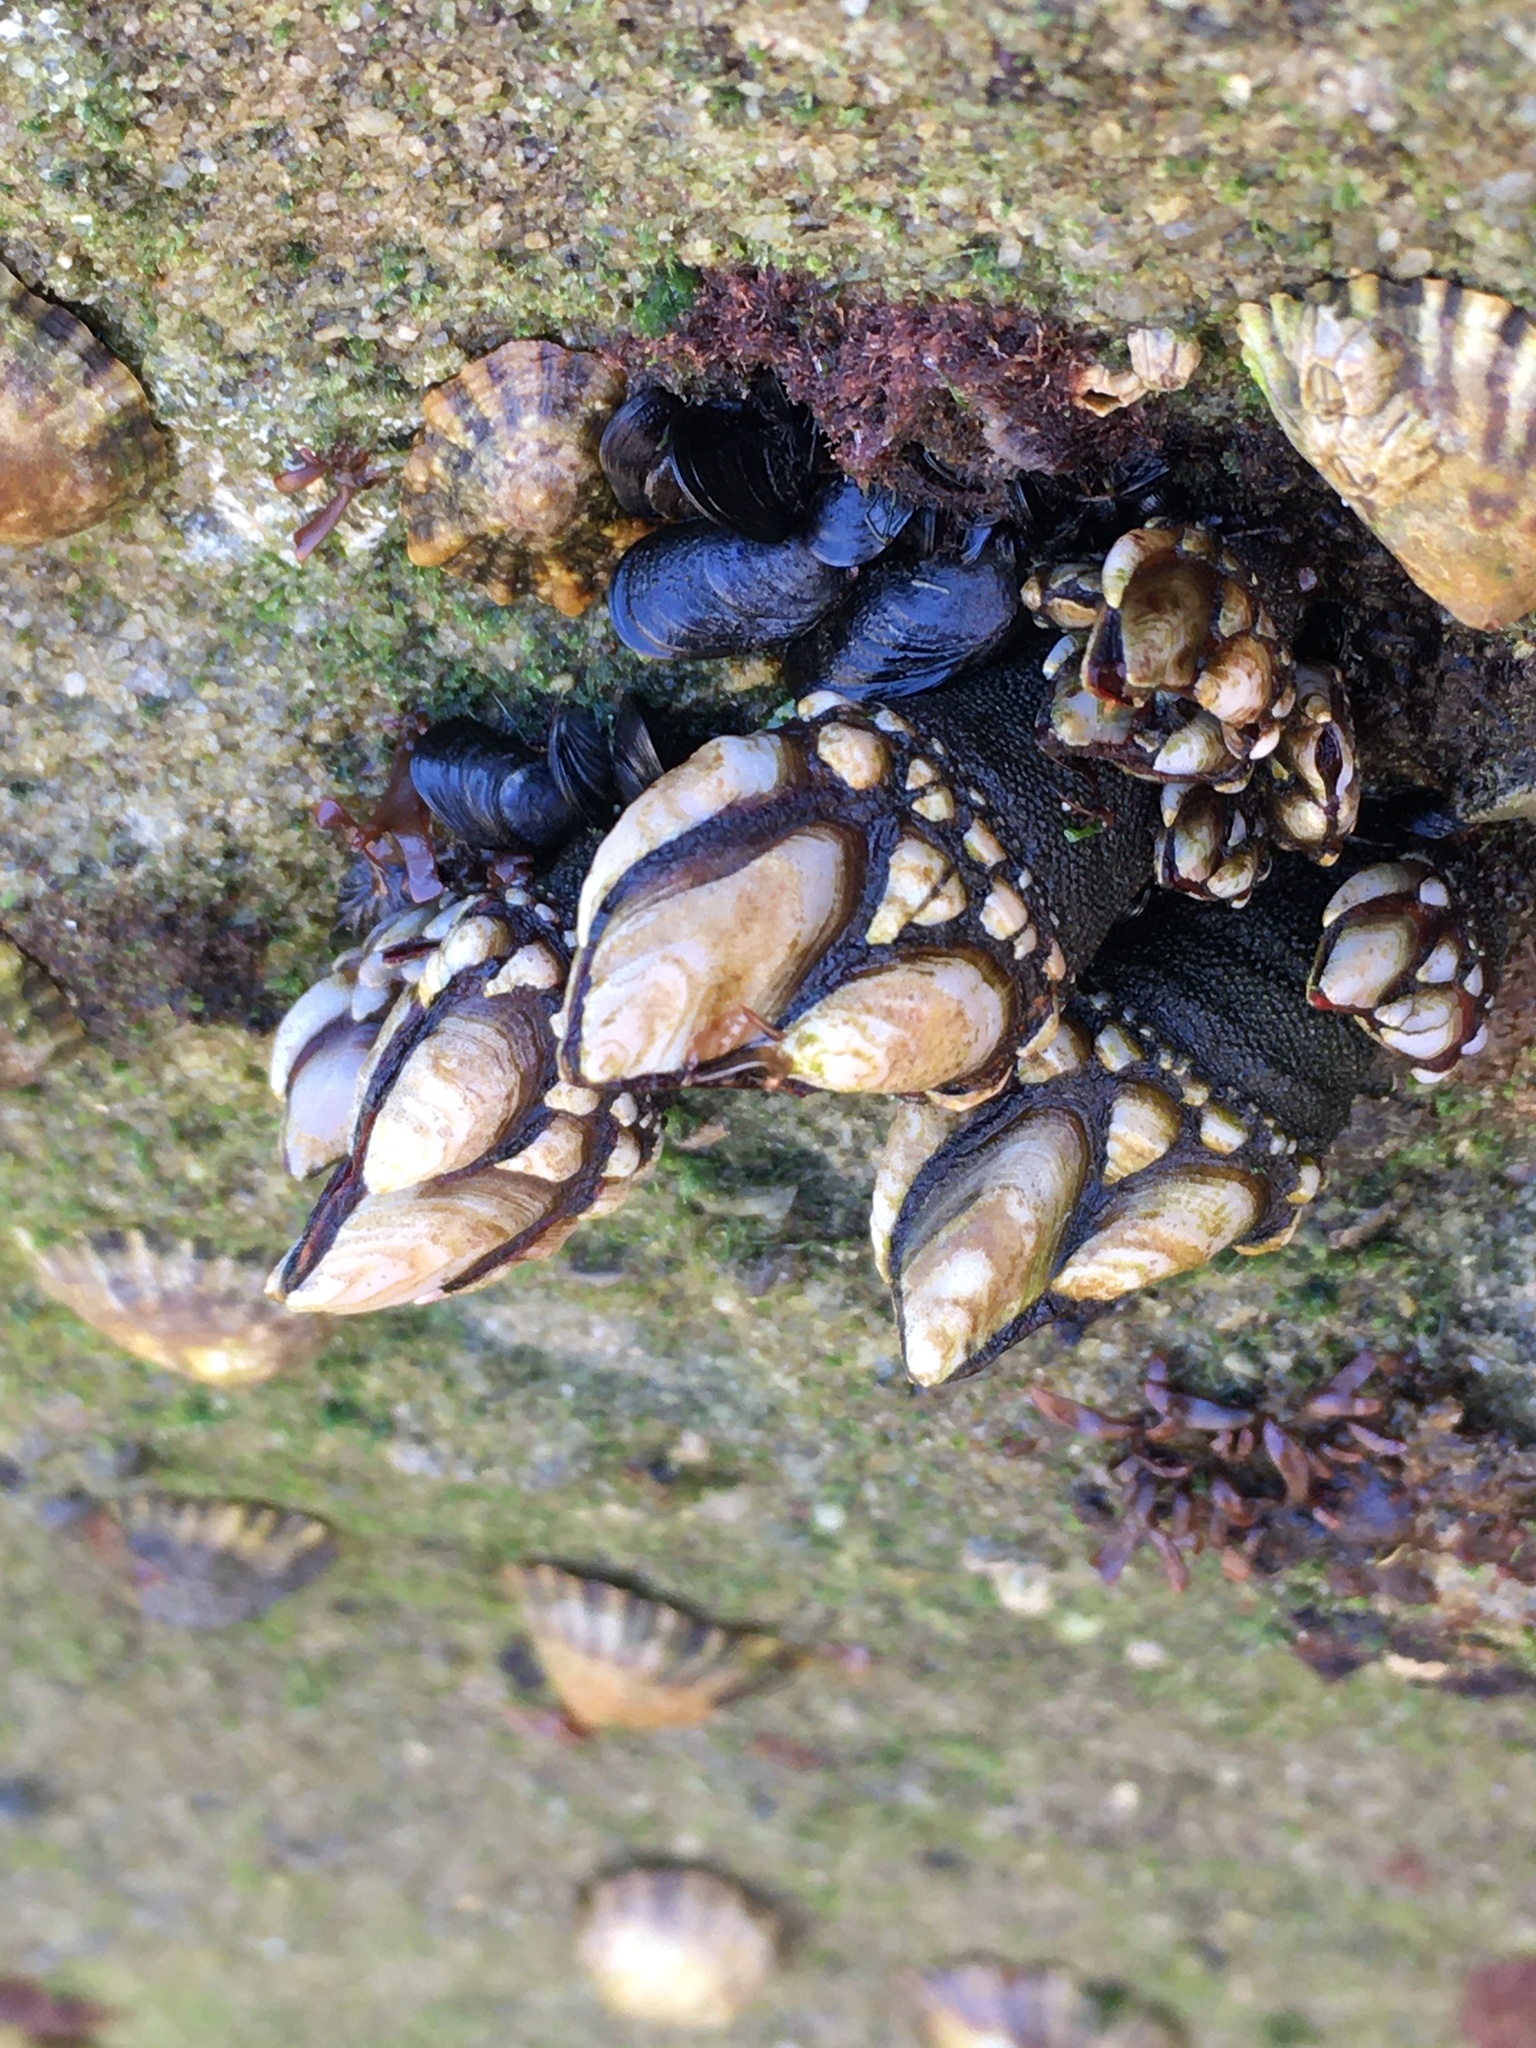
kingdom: Animalia
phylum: Arthropoda
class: Maxillopoda
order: Pedunculata
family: Pollicipedidae
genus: Pollicipes
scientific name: Pollicipes pollicipes
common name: Gooseneck barnacle
